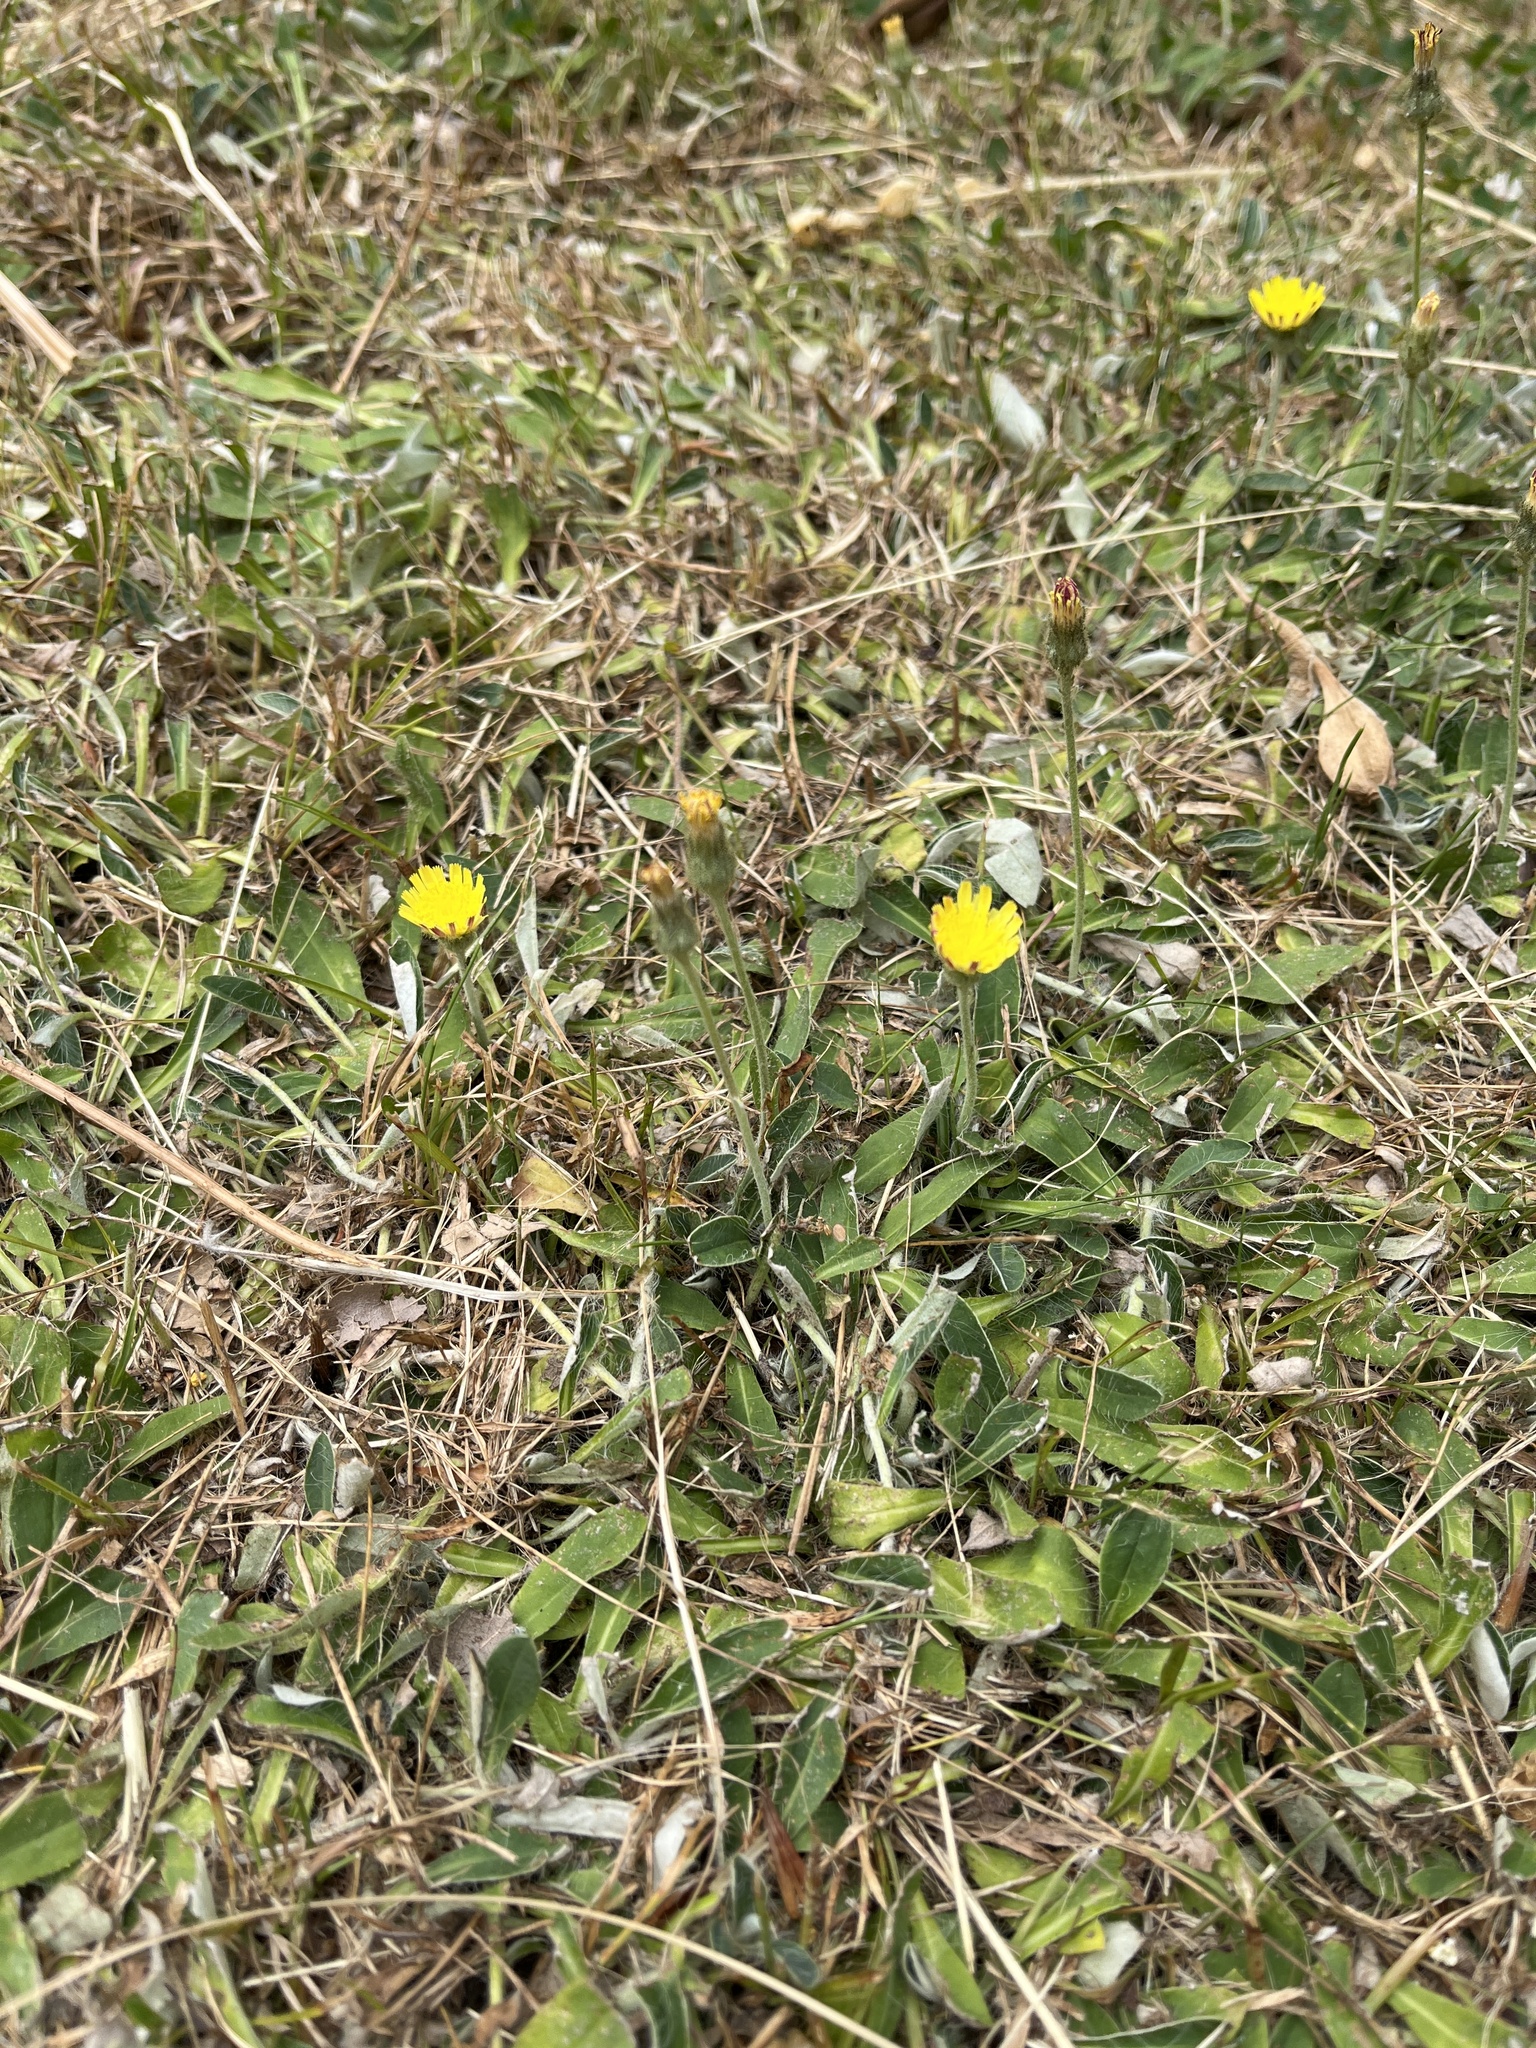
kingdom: Plantae
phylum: Tracheophyta
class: Magnoliopsida
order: Asterales
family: Asteraceae
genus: Pilosella
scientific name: Pilosella officinarum
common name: Mouse-ear hawkweed
